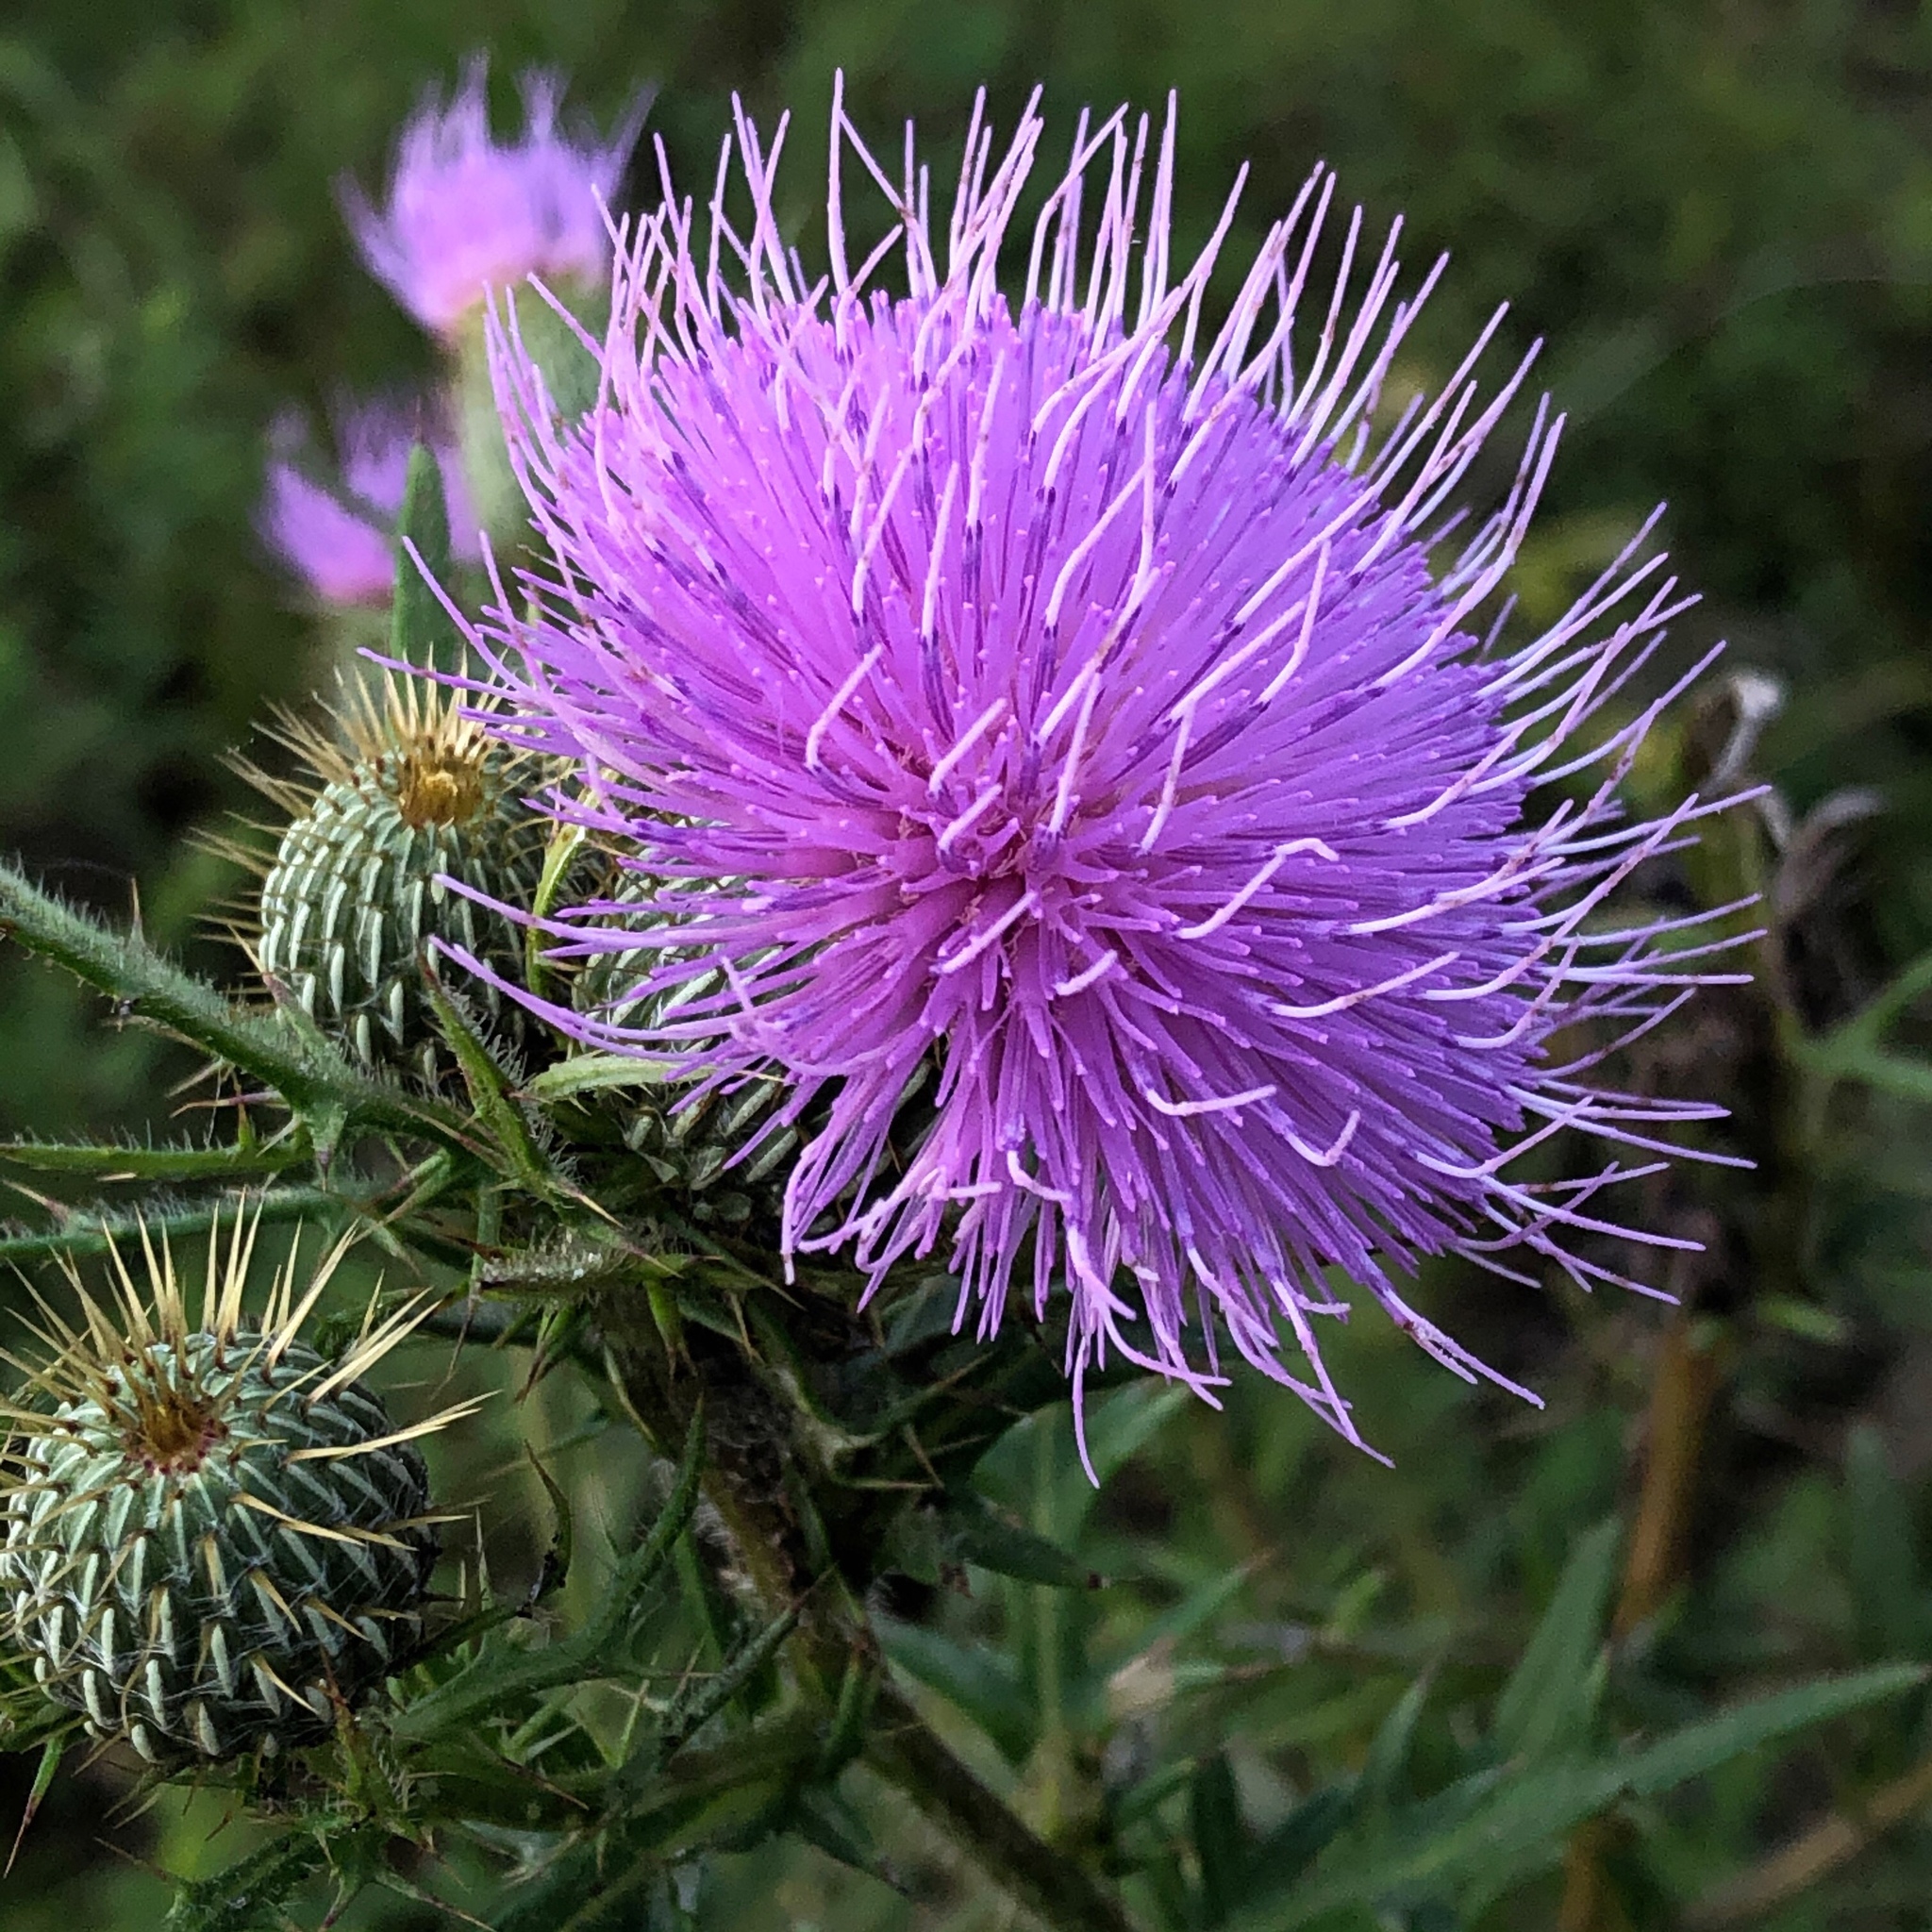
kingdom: Plantae
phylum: Tracheophyta
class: Magnoliopsida
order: Asterales
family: Asteraceae
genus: Cirsium
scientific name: Cirsium discolor
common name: Field thistle
